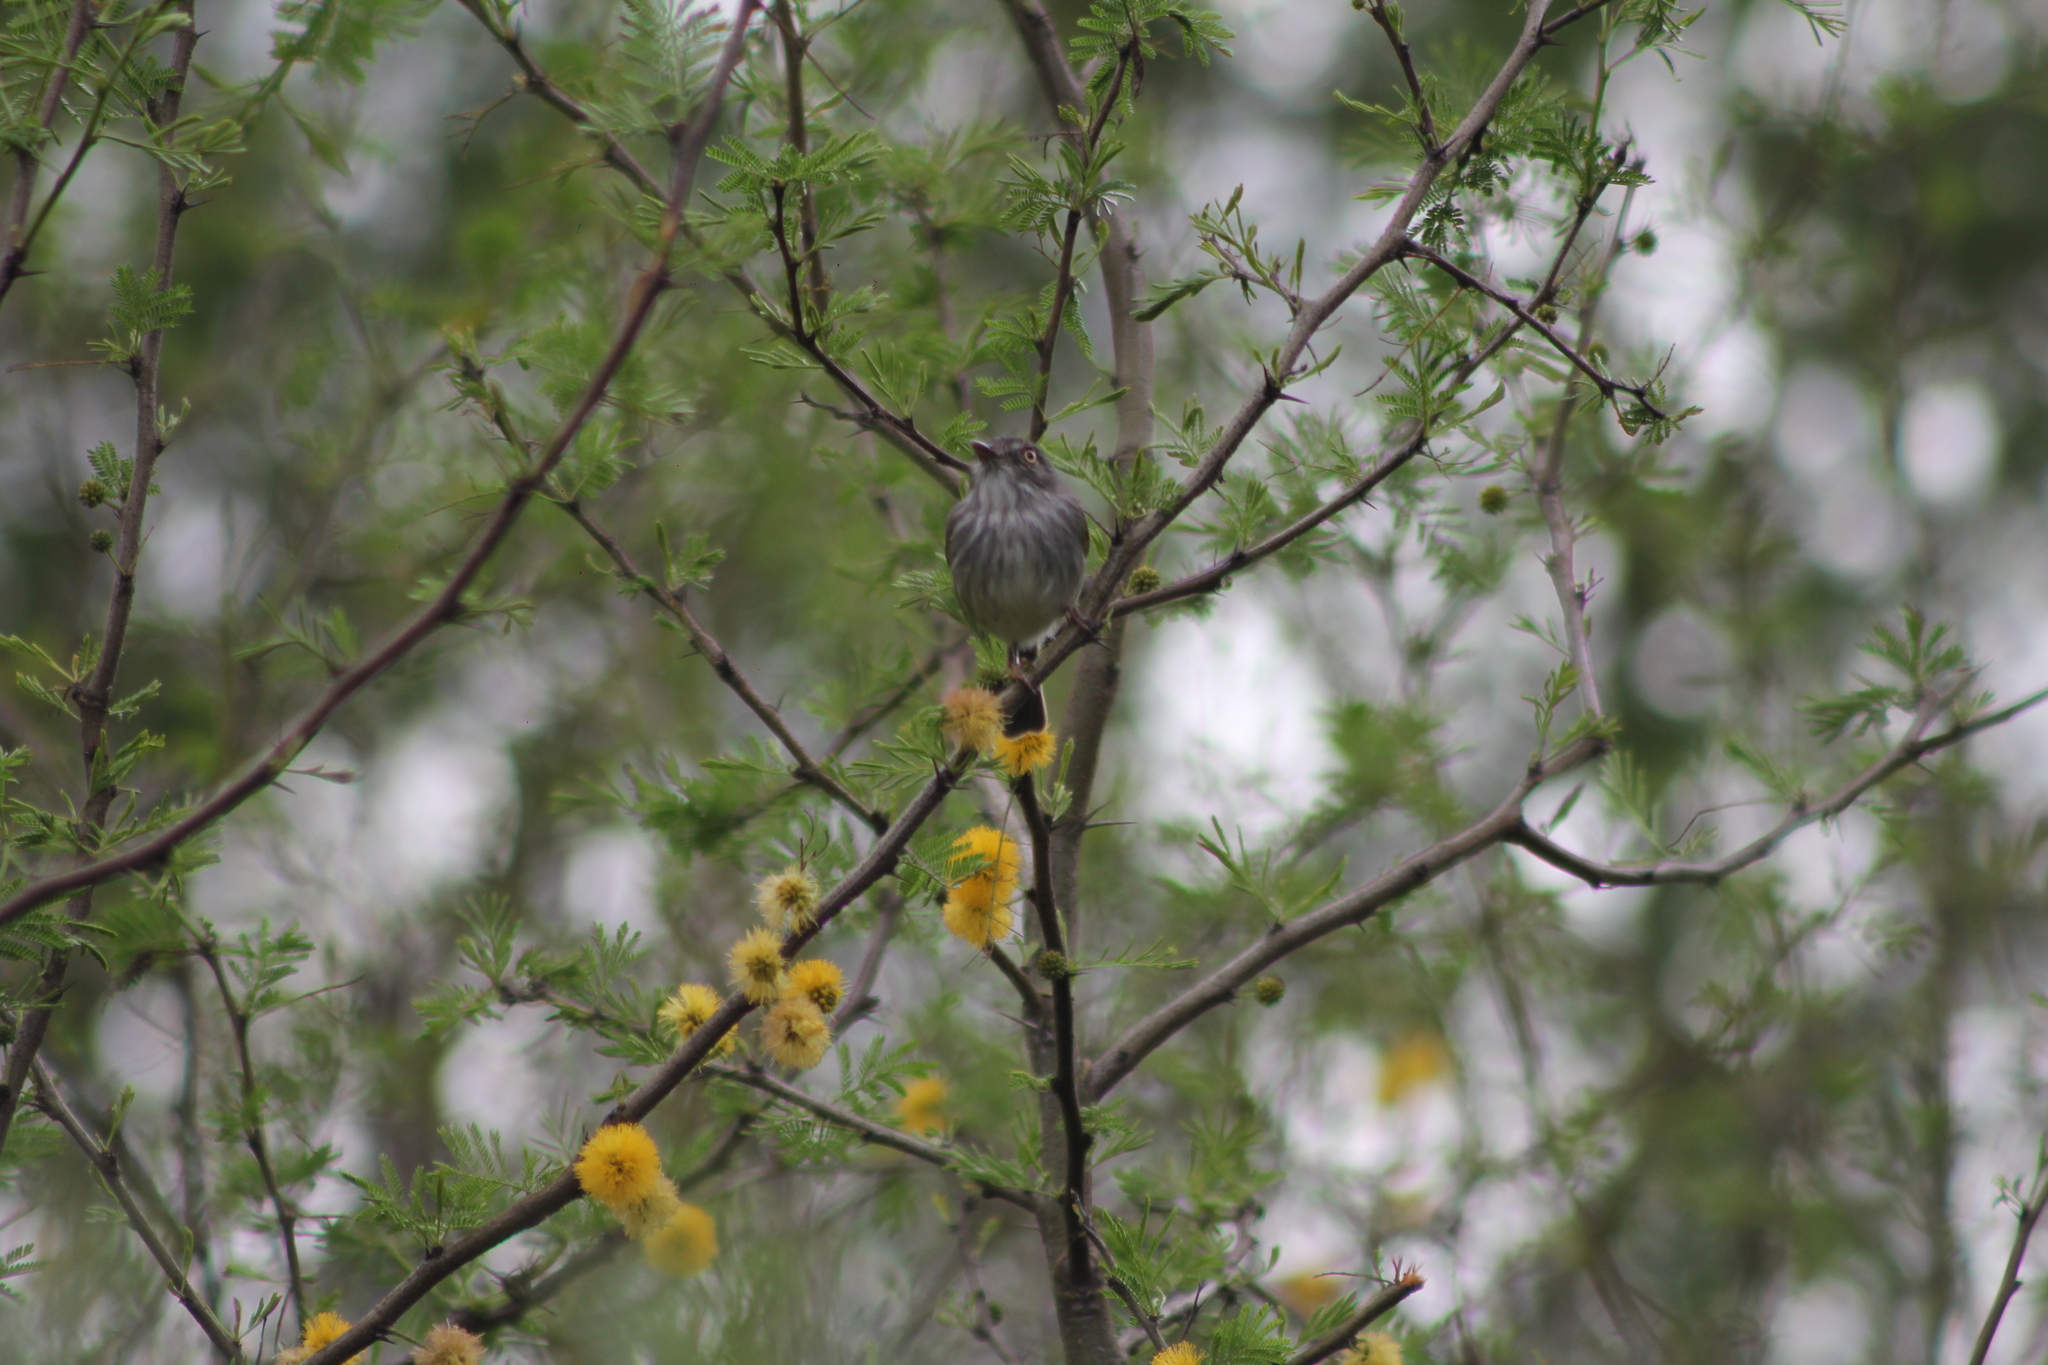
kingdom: Animalia
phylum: Chordata
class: Aves
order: Passeriformes
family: Tyrannidae
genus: Hemitriccus
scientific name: Hemitriccus margaritaceiventer
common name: Pearly-vented tody-tyrant
